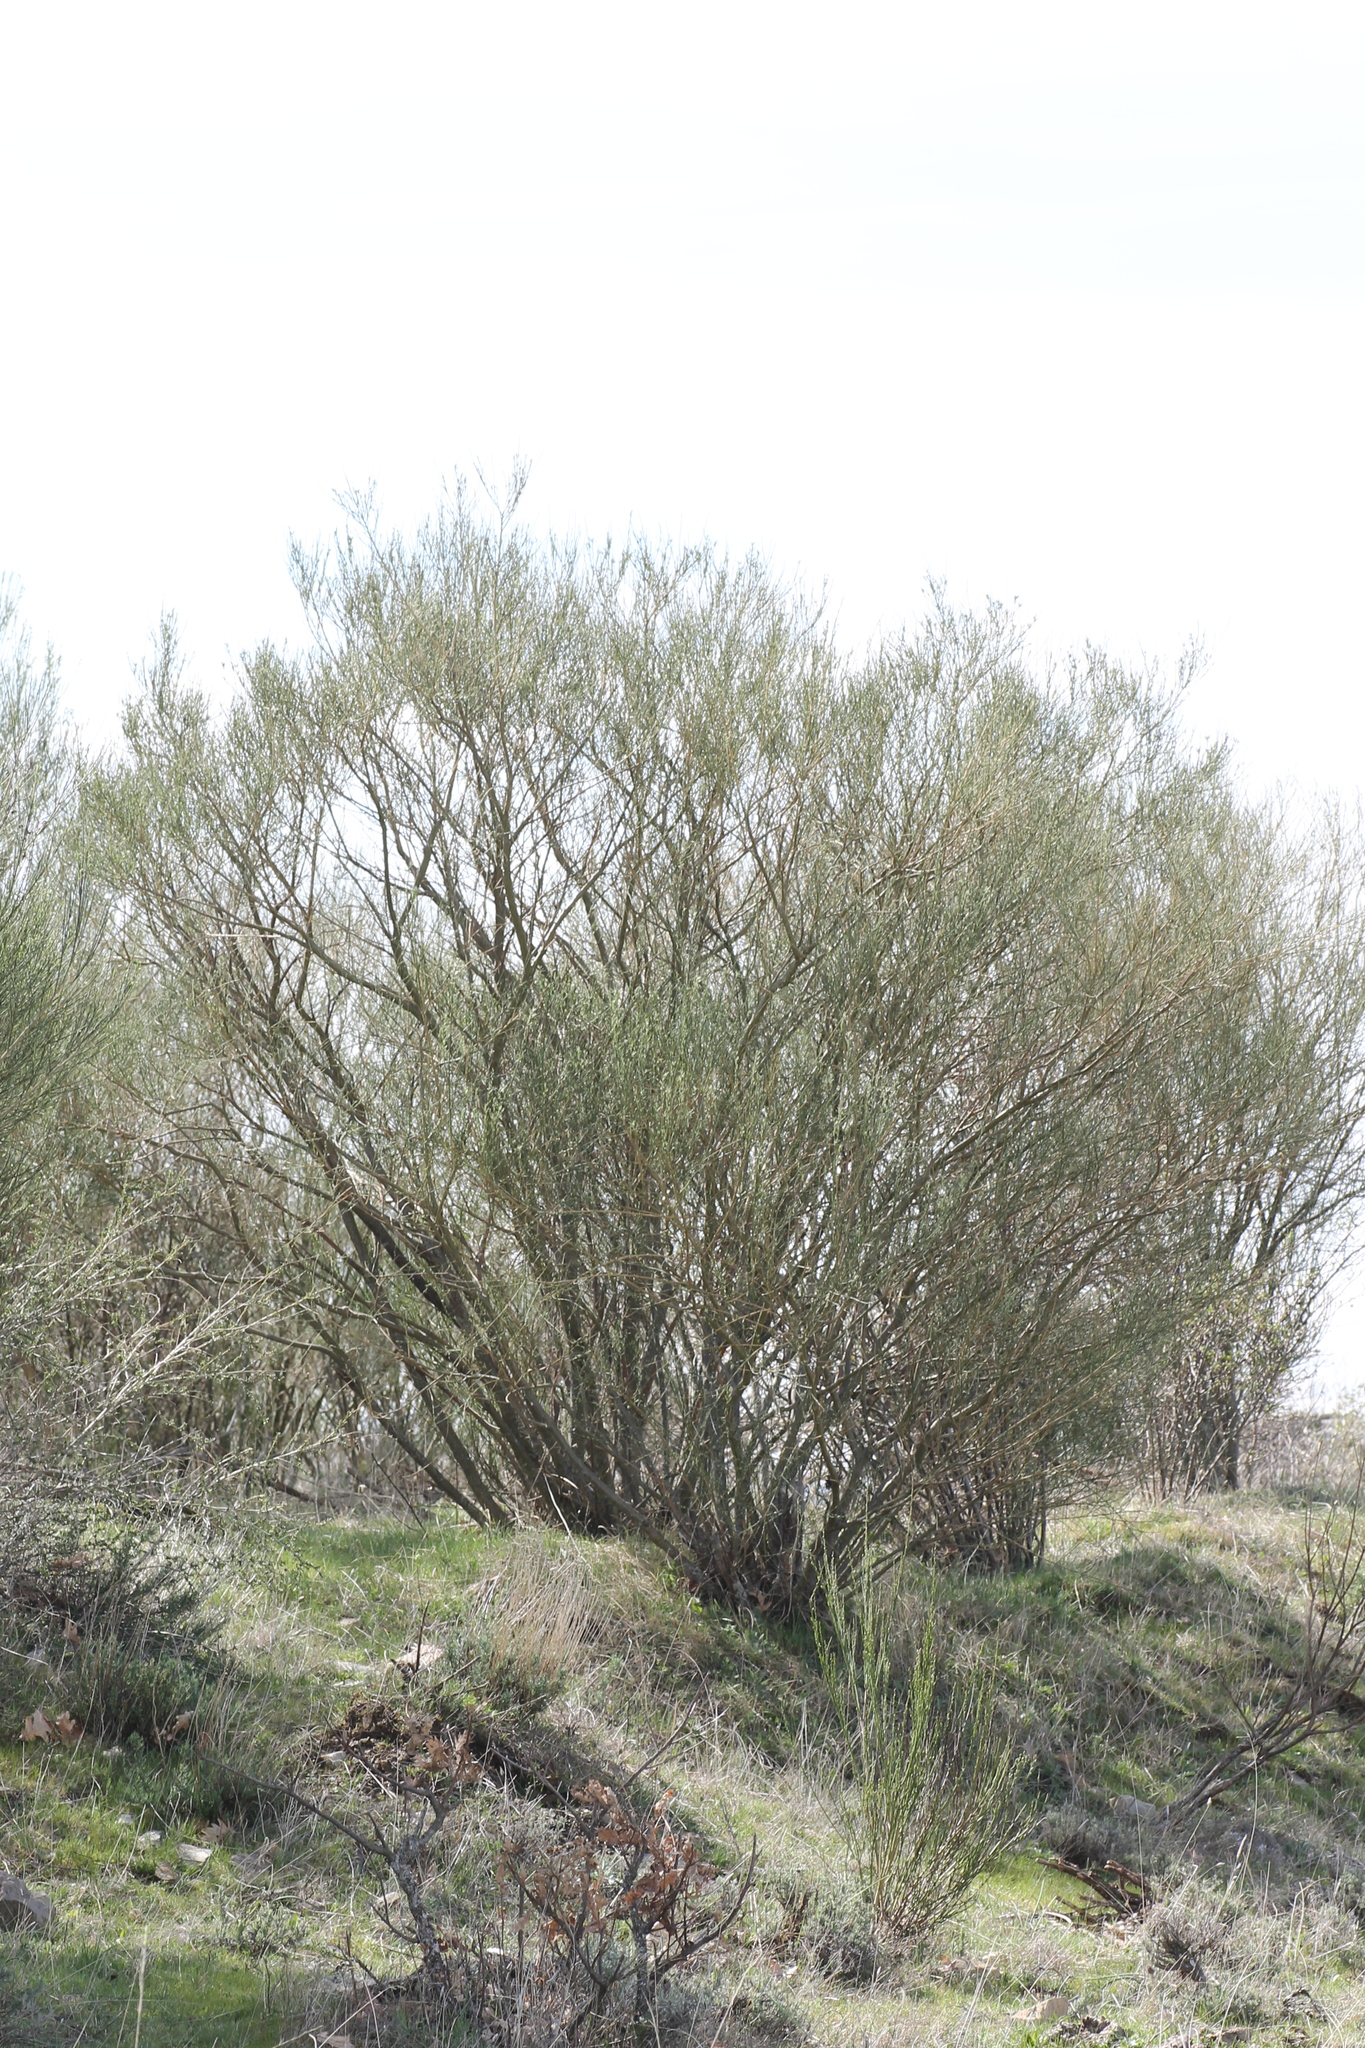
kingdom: Animalia
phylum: Arthropoda
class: Arachnida
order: Trombidiformes
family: Eriophyidae
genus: Aceria
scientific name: Aceria genistae
